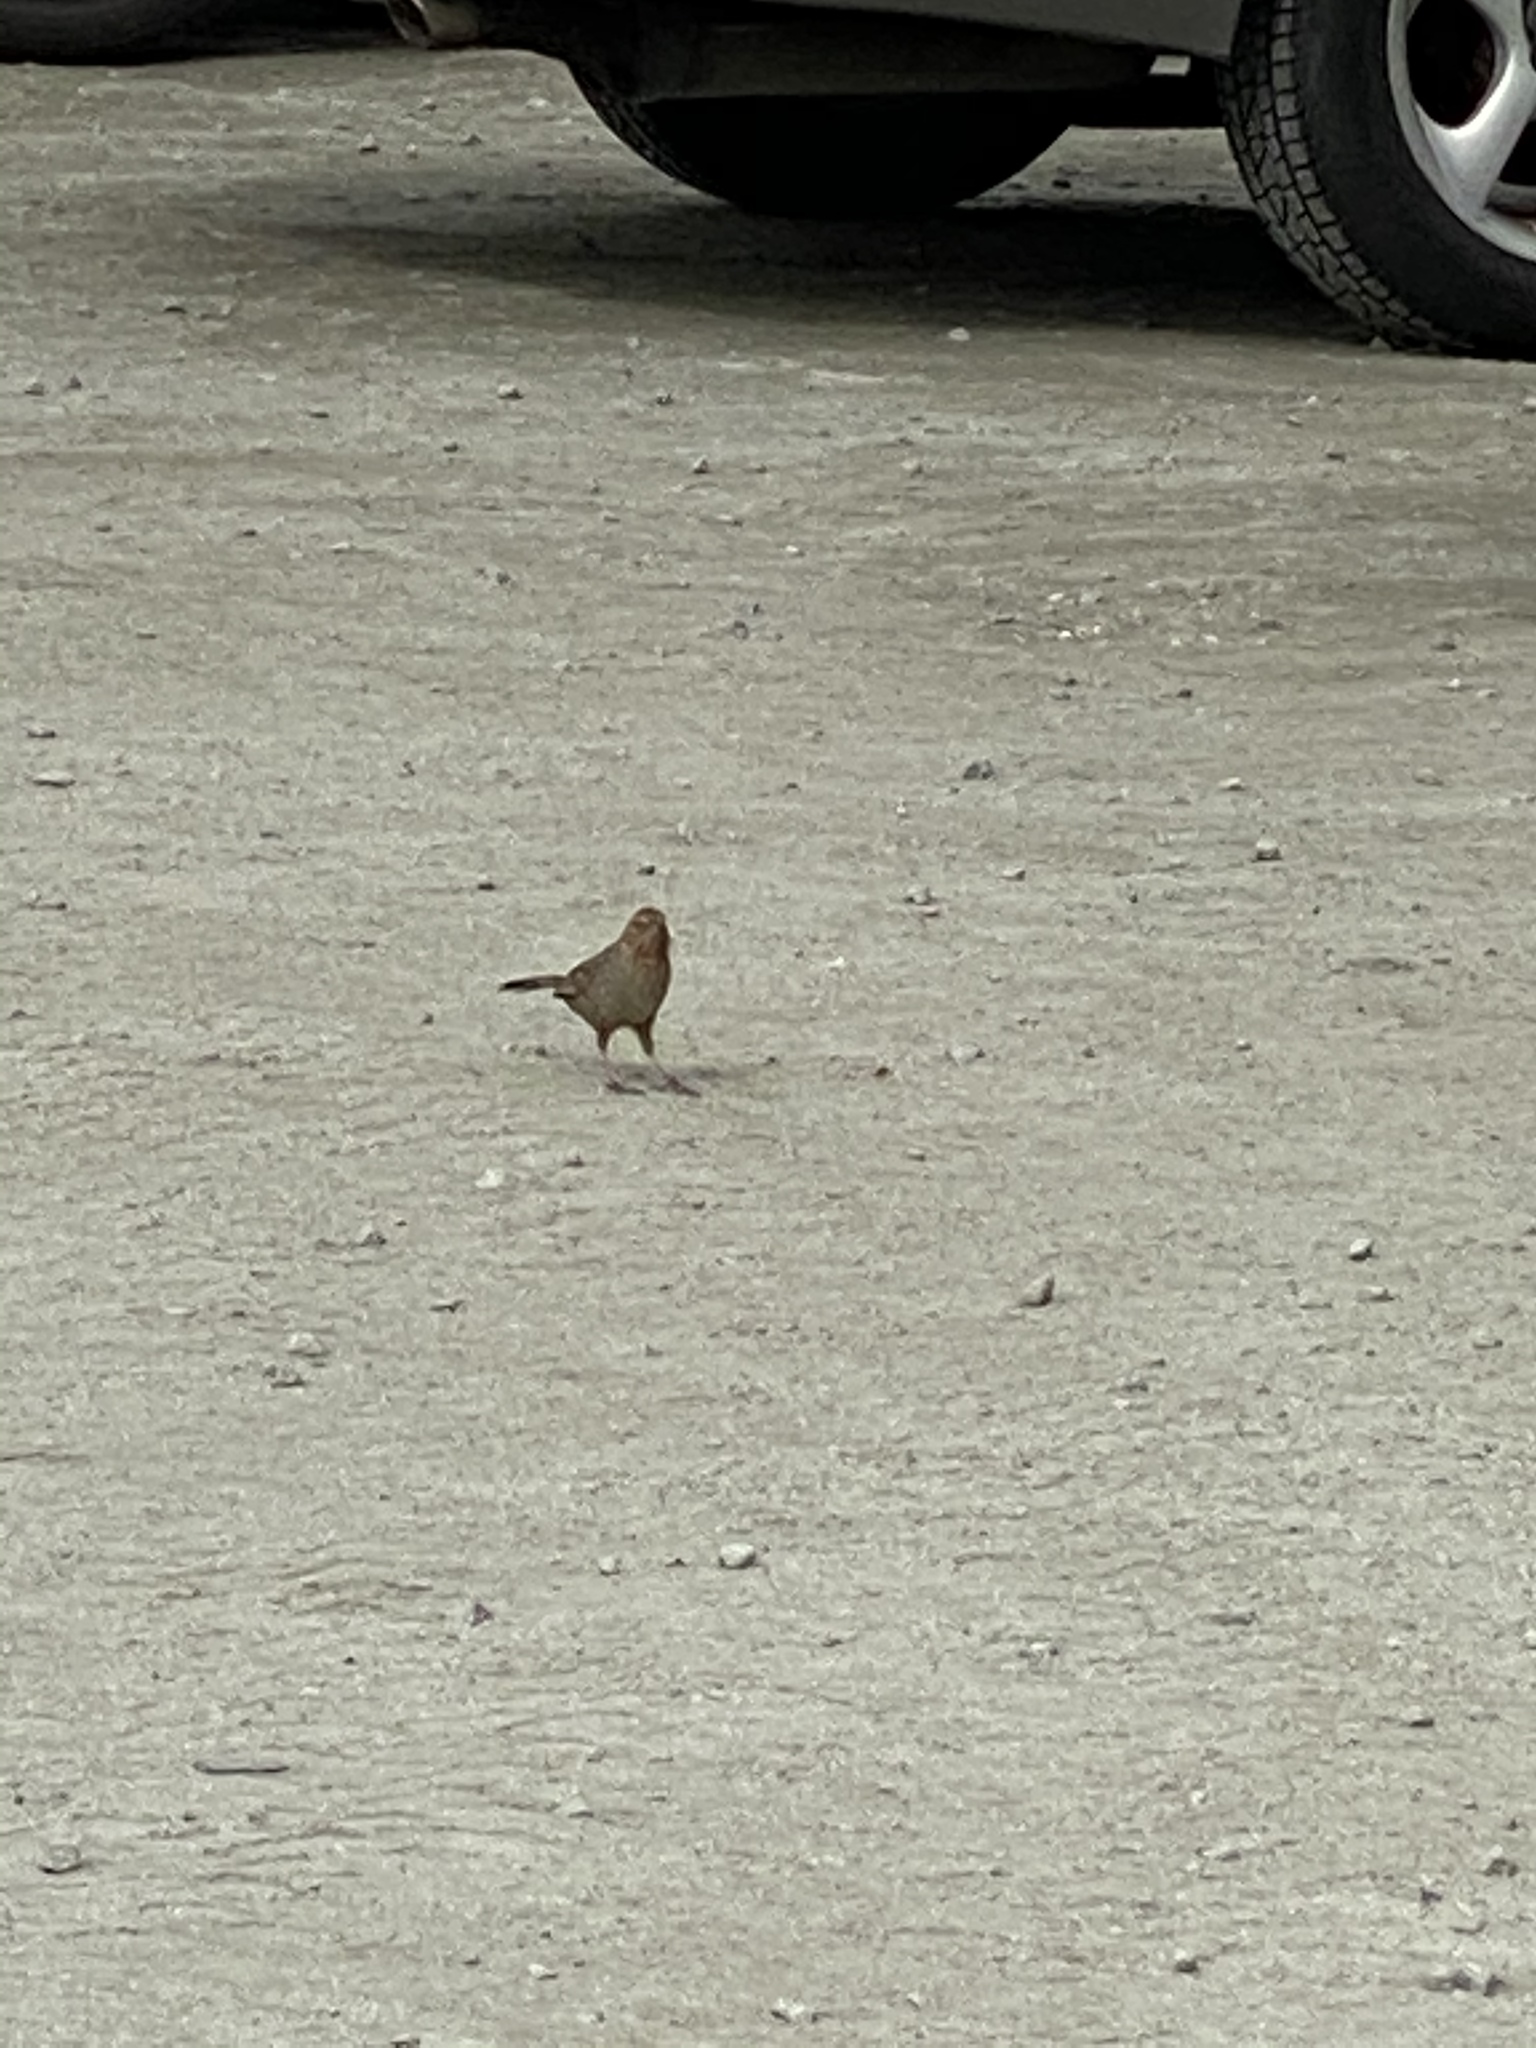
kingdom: Animalia
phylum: Chordata
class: Aves
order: Passeriformes
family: Passerellidae
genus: Melozone
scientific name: Melozone crissalis
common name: California towhee
